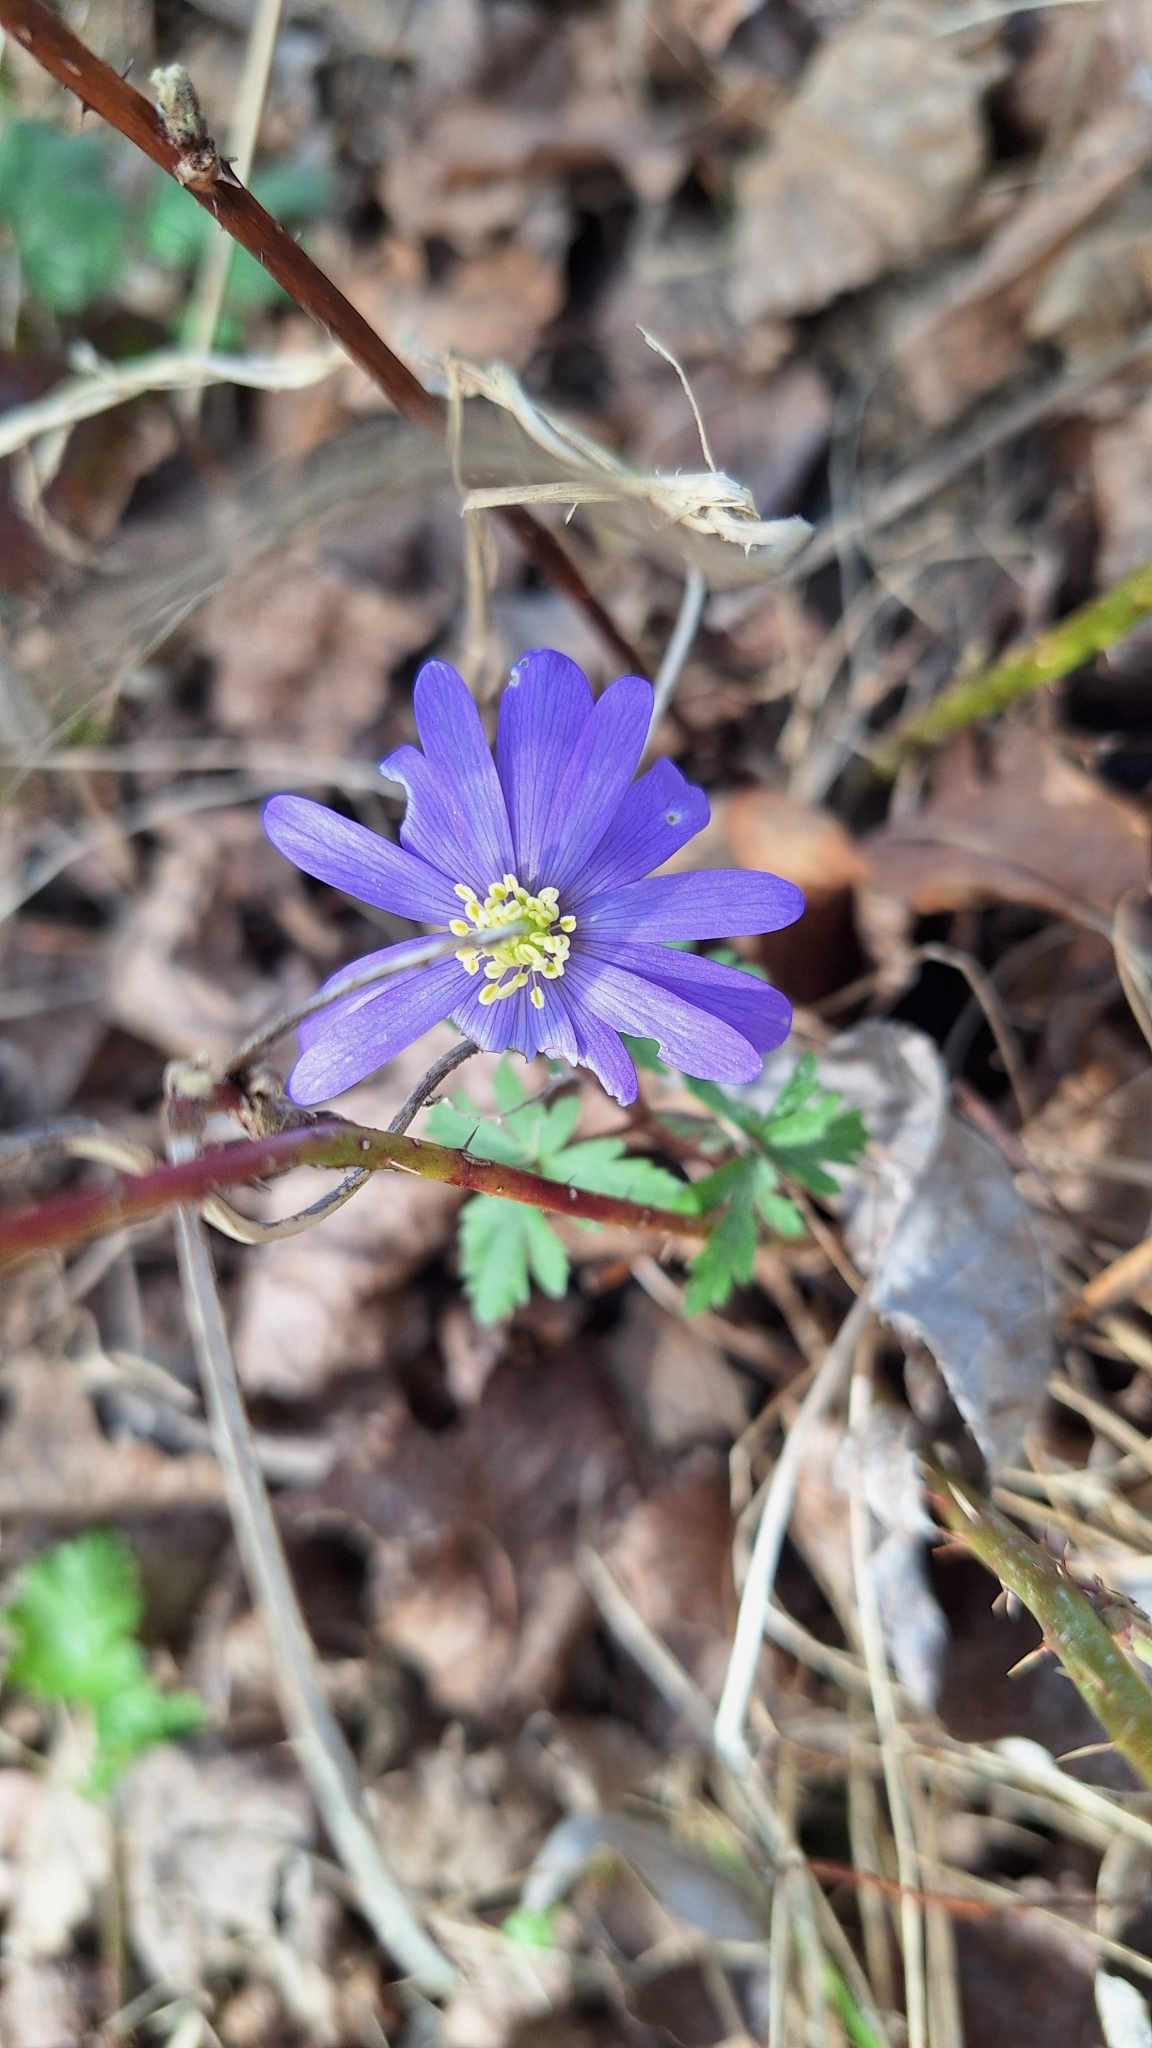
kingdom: Plantae
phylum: Tracheophyta
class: Magnoliopsida
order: Ranunculales
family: Ranunculaceae
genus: Anemone
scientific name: Anemone blanda
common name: Balkan anemone
